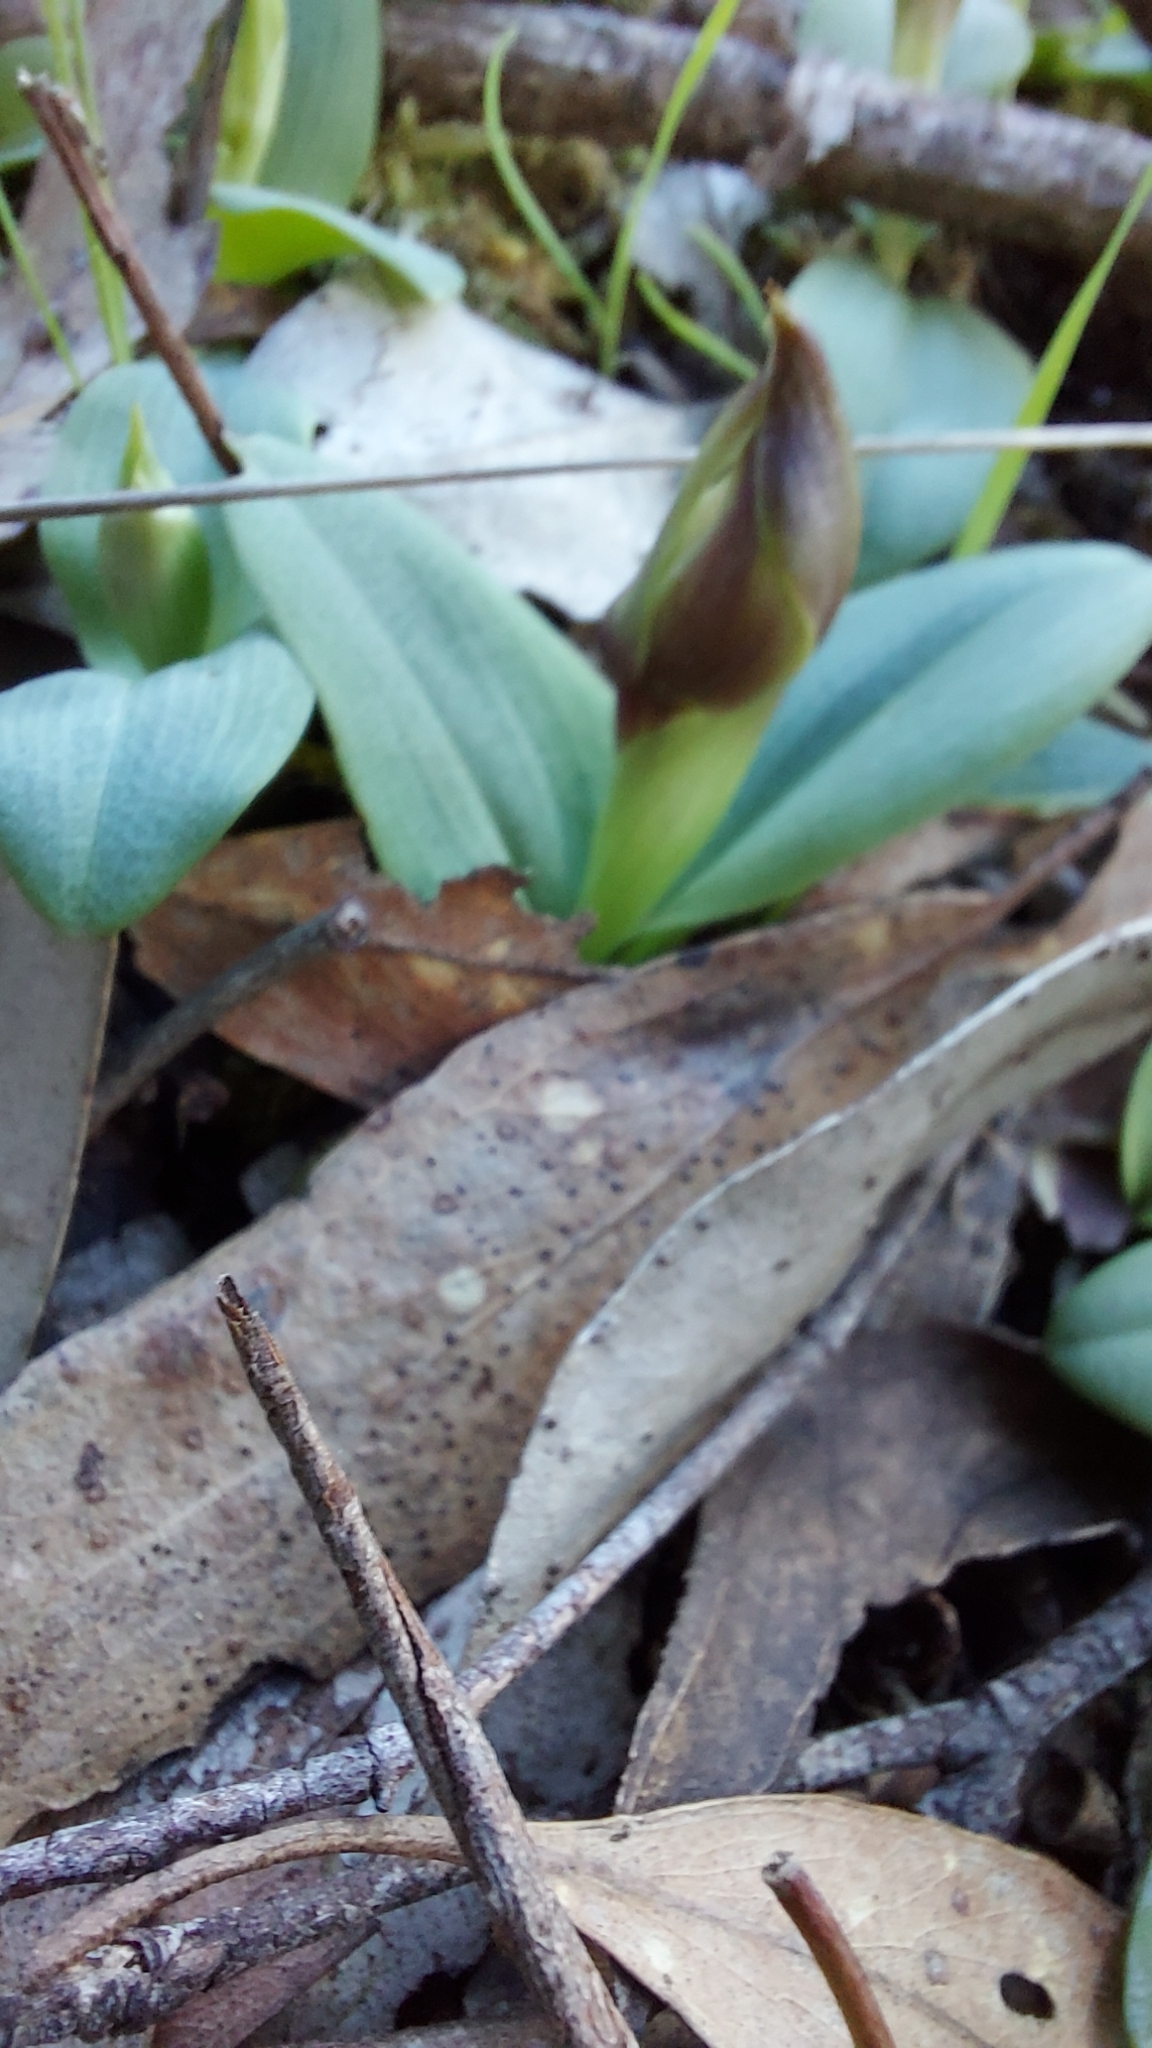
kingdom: Plantae
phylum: Tracheophyta
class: Liliopsida
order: Asparagales
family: Orchidaceae
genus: Chiloglottis
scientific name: Chiloglottis valida
